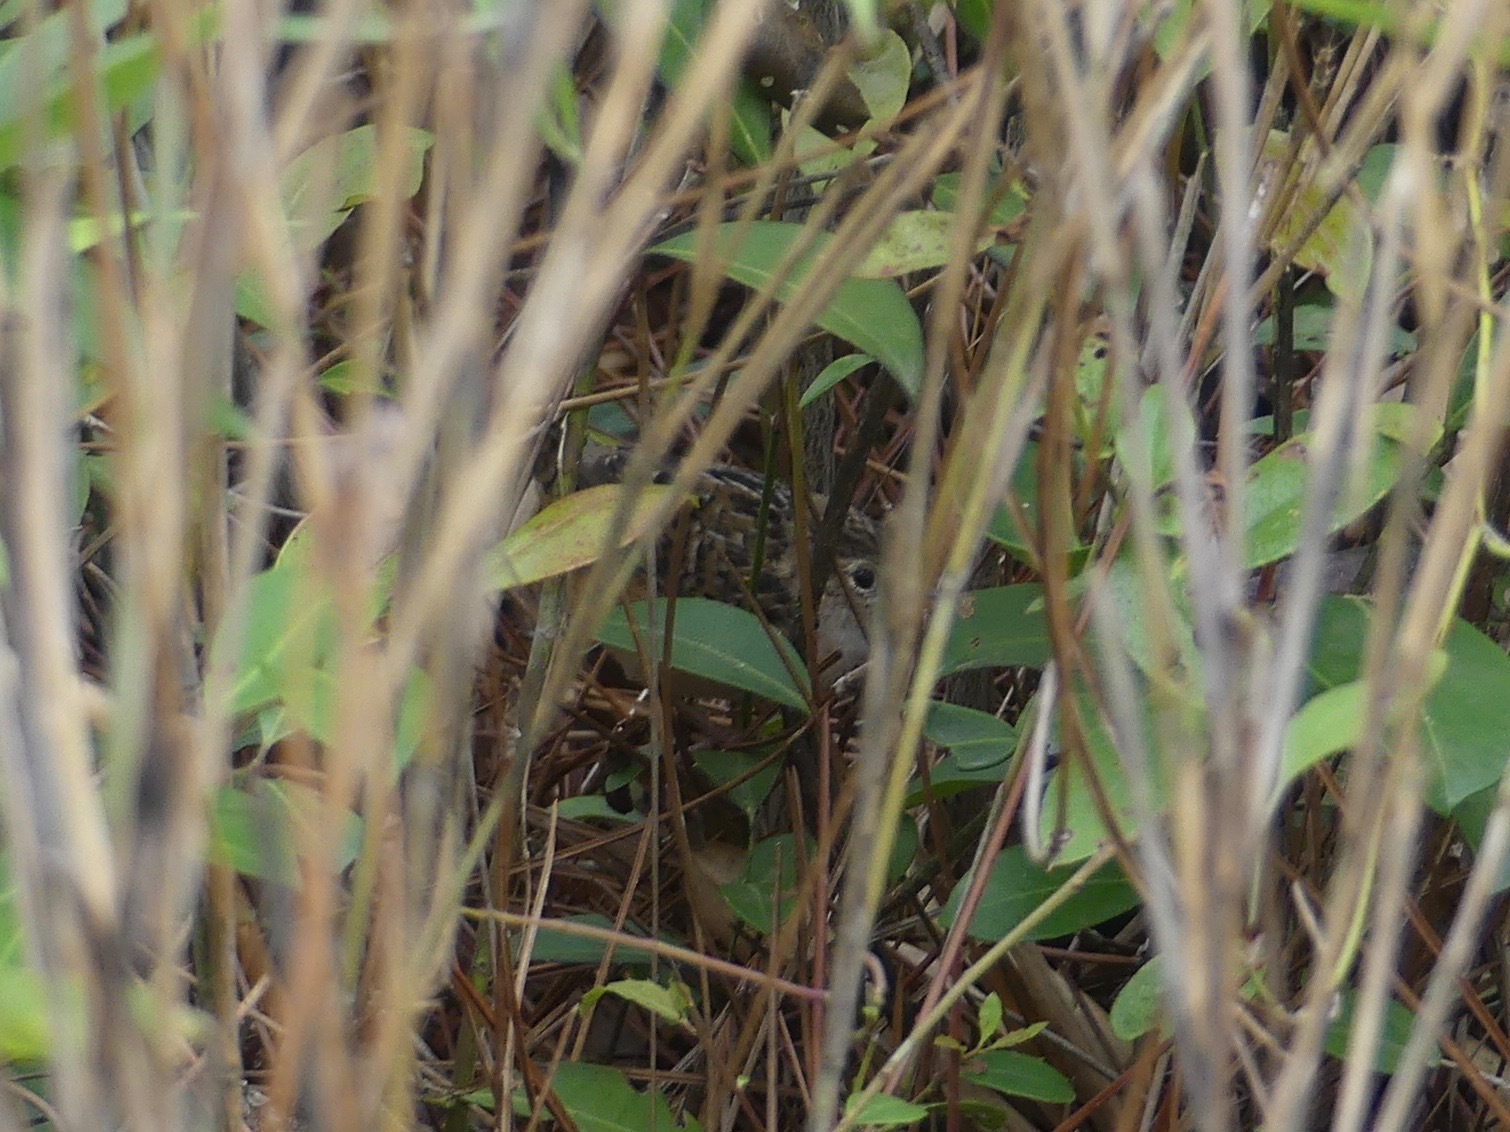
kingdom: Animalia
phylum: Chordata
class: Aves
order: Passeriformes
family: Troglodytidae
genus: Cistothorus
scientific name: Cistothorus platensis
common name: Sedge wren
